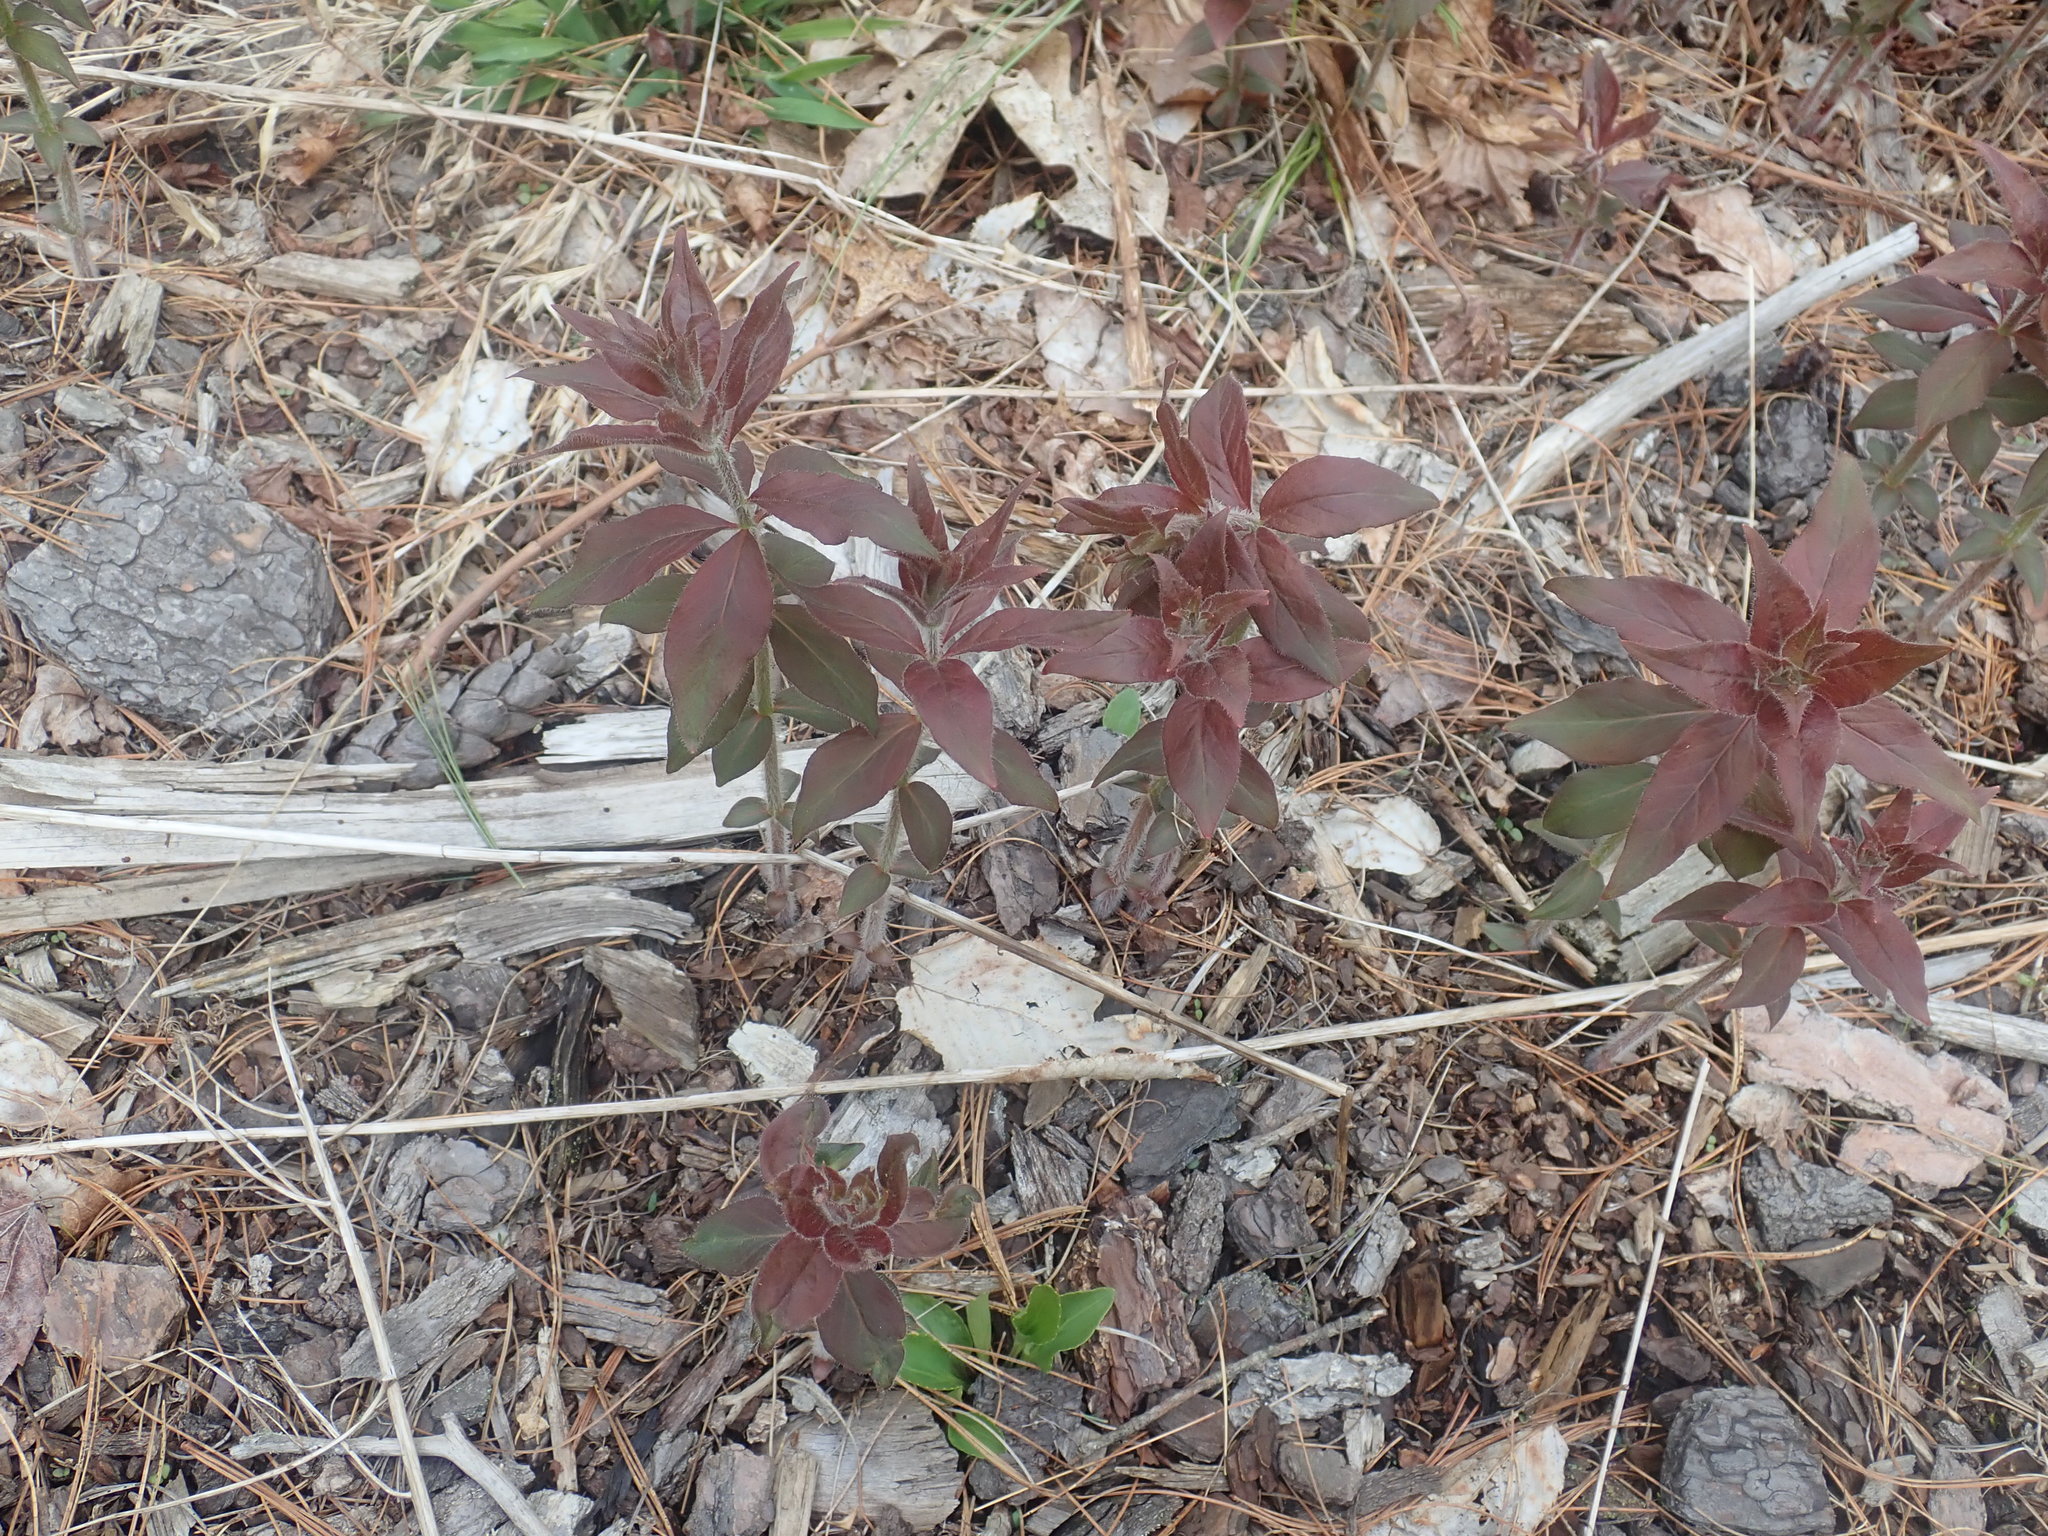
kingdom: Plantae
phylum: Tracheophyta
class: Magnoliopsida
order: Ericales
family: Primulaceae
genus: Lysimachia
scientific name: Lysimachia quadrifolia
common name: Whorled loosestrife
